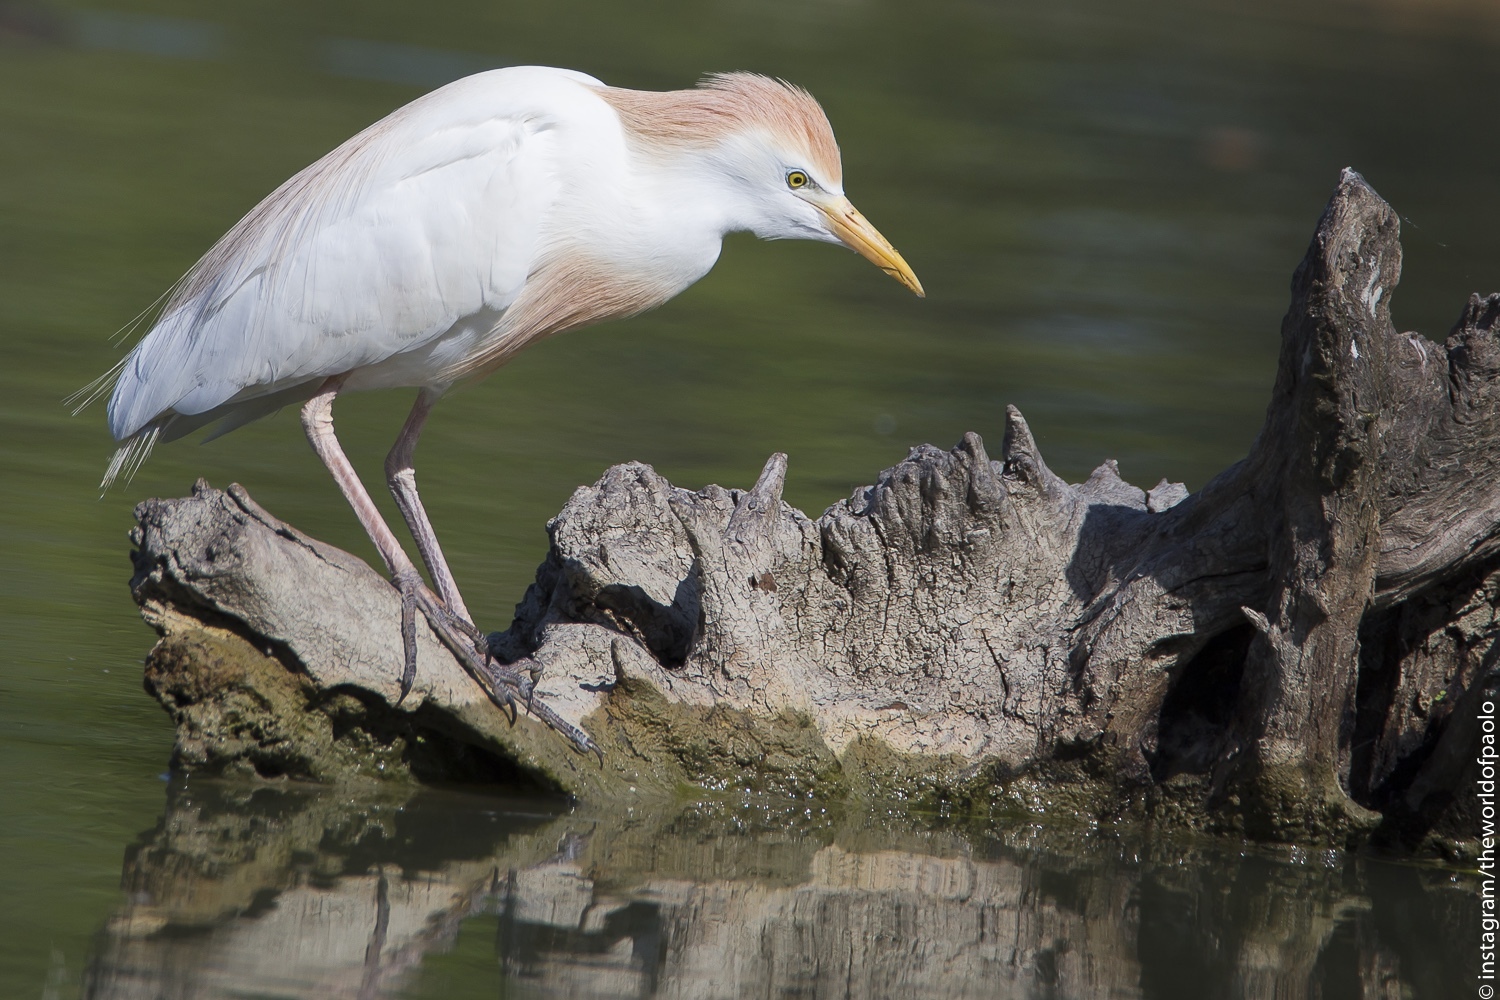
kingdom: Animalia
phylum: Chordata
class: Aves
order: Pelecaniformes
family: Ardeidae
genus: Bubulcus
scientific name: Bubulcus ibis
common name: Cattle egret
